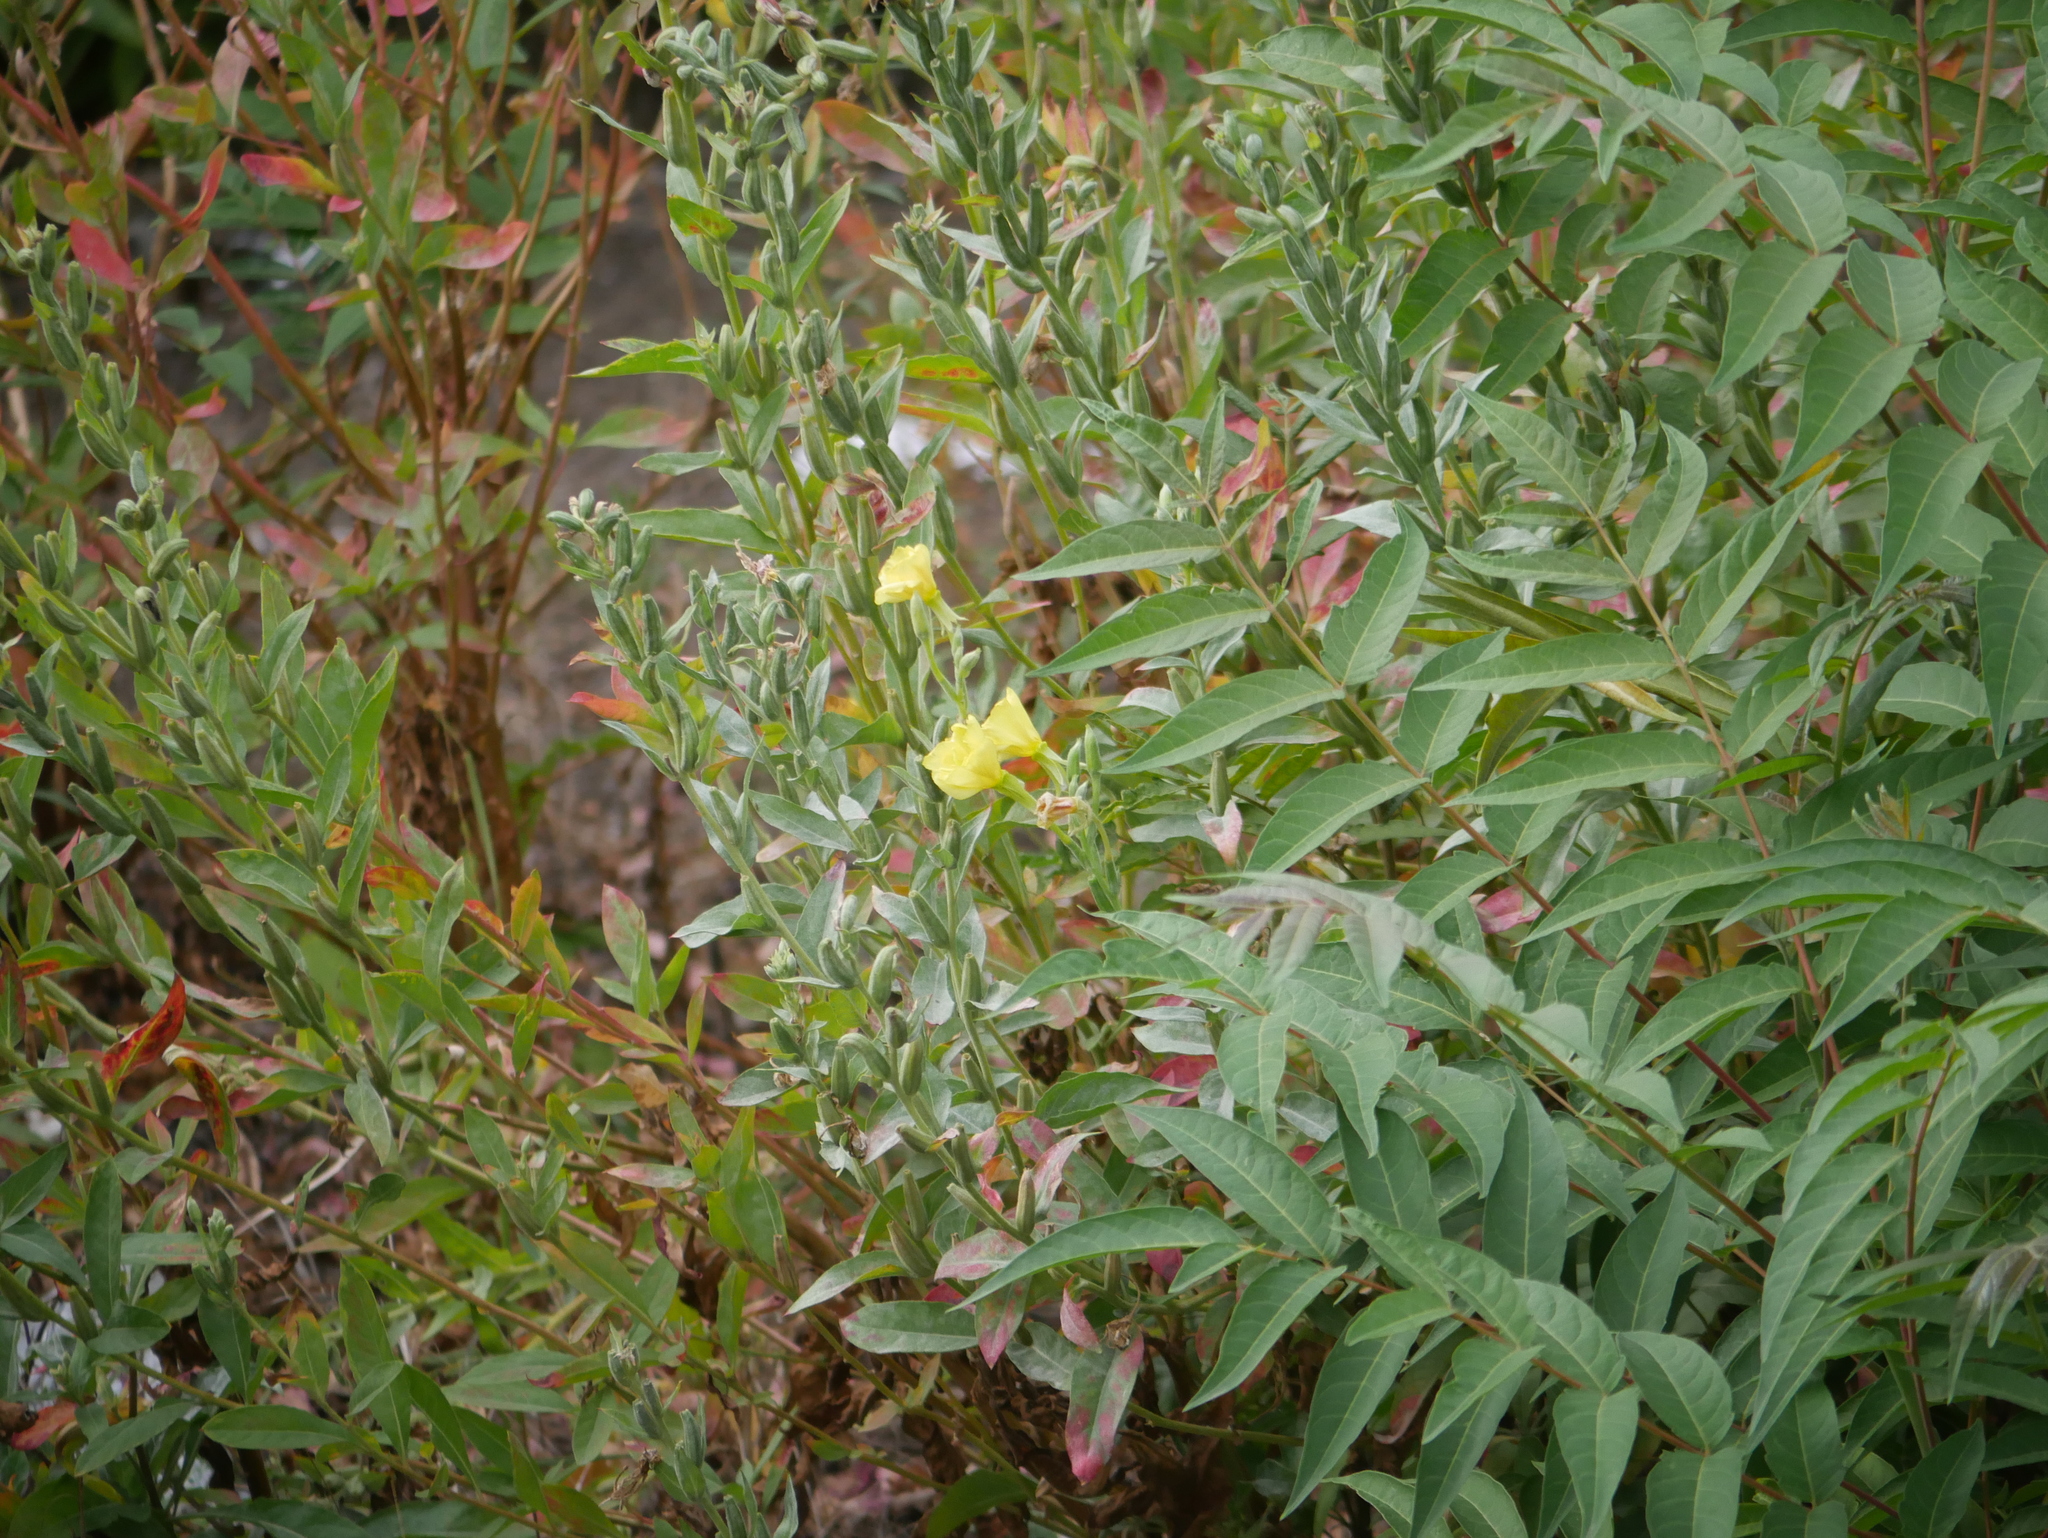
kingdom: Plantae
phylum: Tracheophyta
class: Magnoliopsida
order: Myrtales
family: Onagraceae
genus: Oenothera
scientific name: Oenothera biennis
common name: Common evening-primrose
